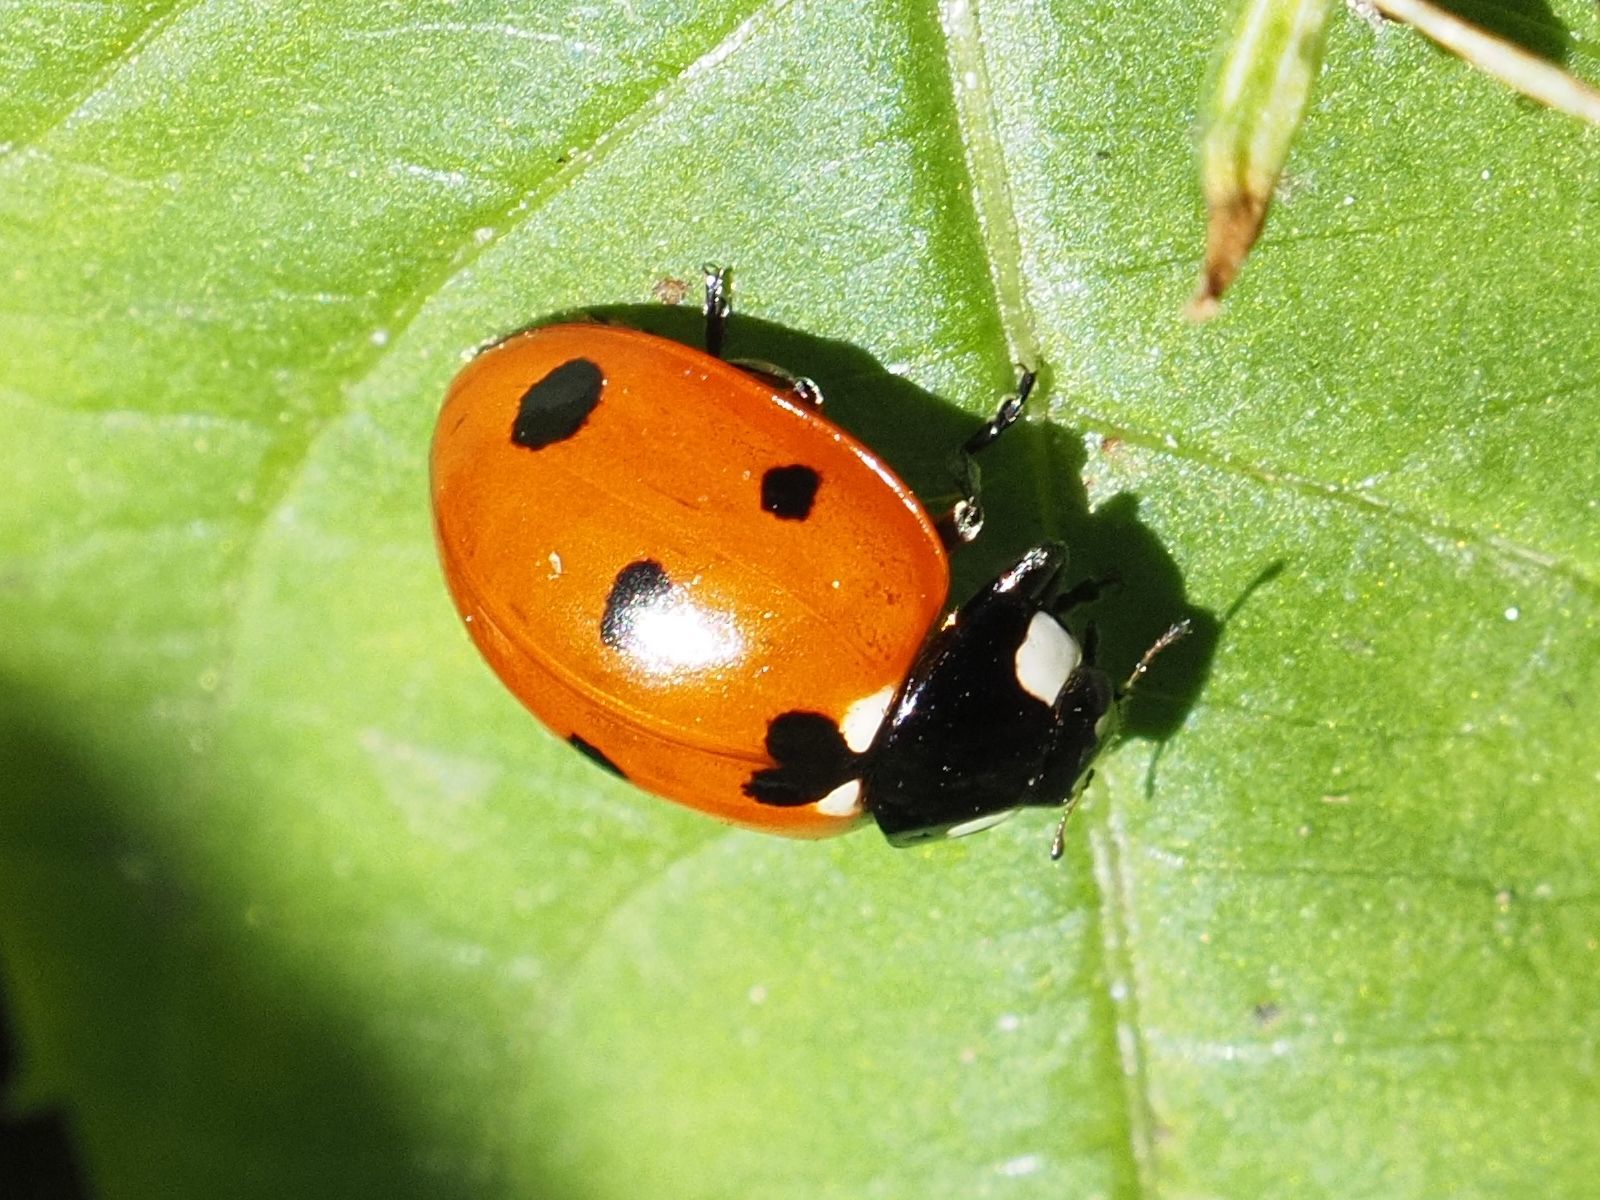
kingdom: Animalia
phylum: Arthropoda
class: Insecta
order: Coleoptera
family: Coccinellidae
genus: Coccinella
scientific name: Coccinella septempunctata
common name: Sevenspotted lady beetle
